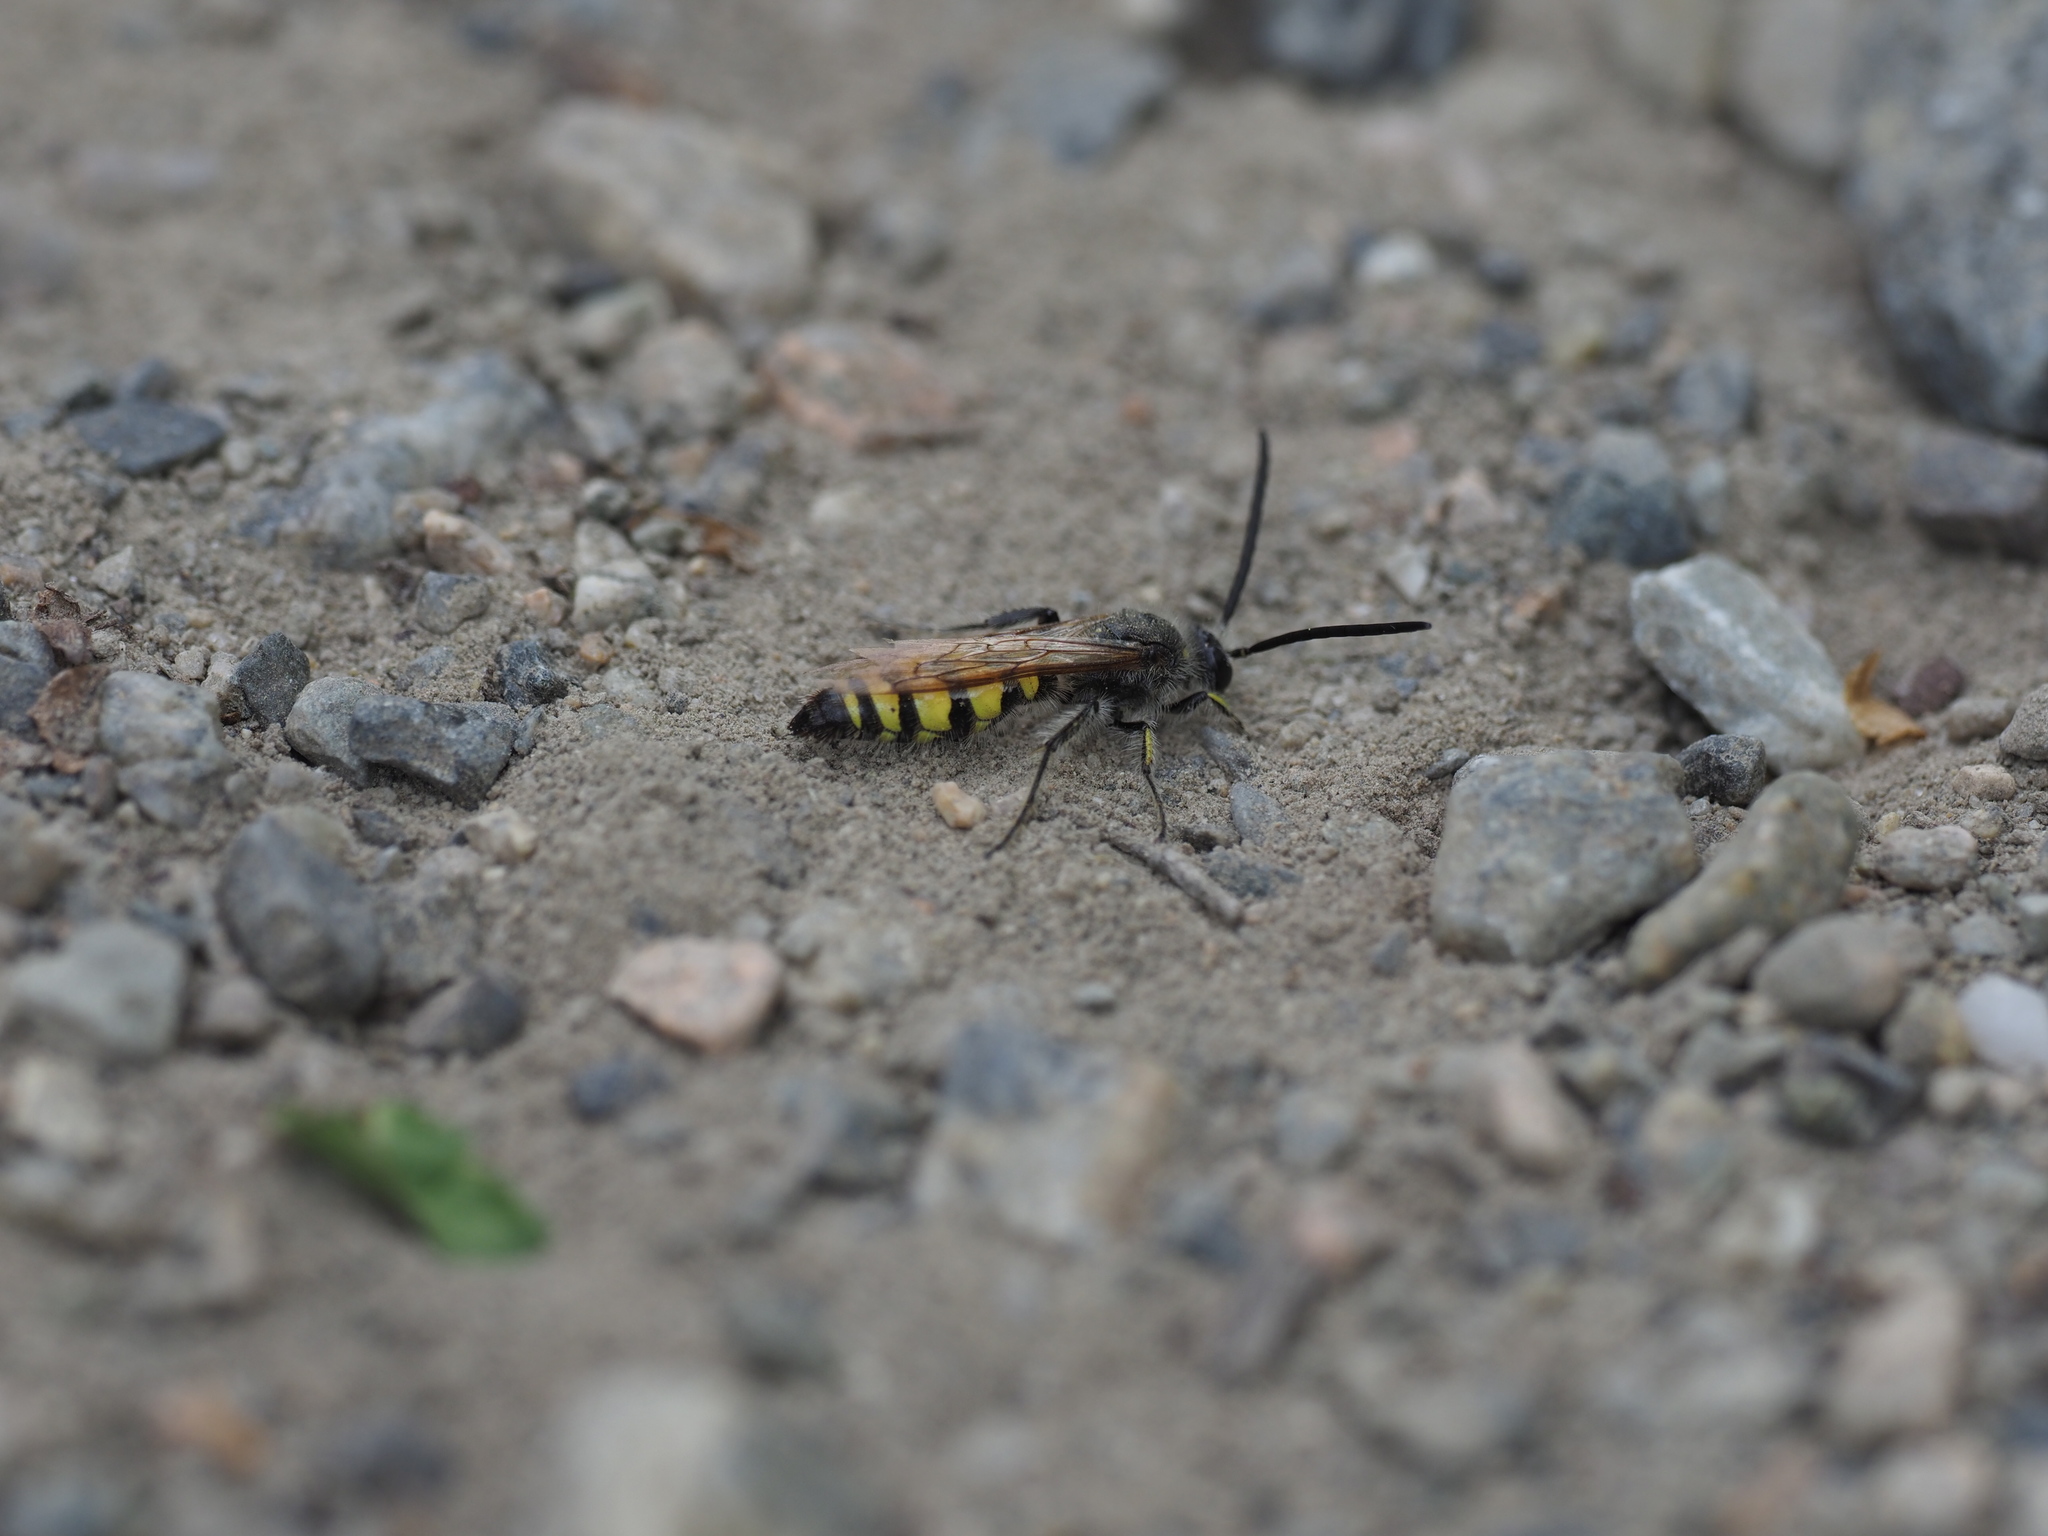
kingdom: Animalia
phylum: Arthropoda
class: Insecta
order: Hymenoptera
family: Scoliidae
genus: Dielis
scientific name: Dielis
